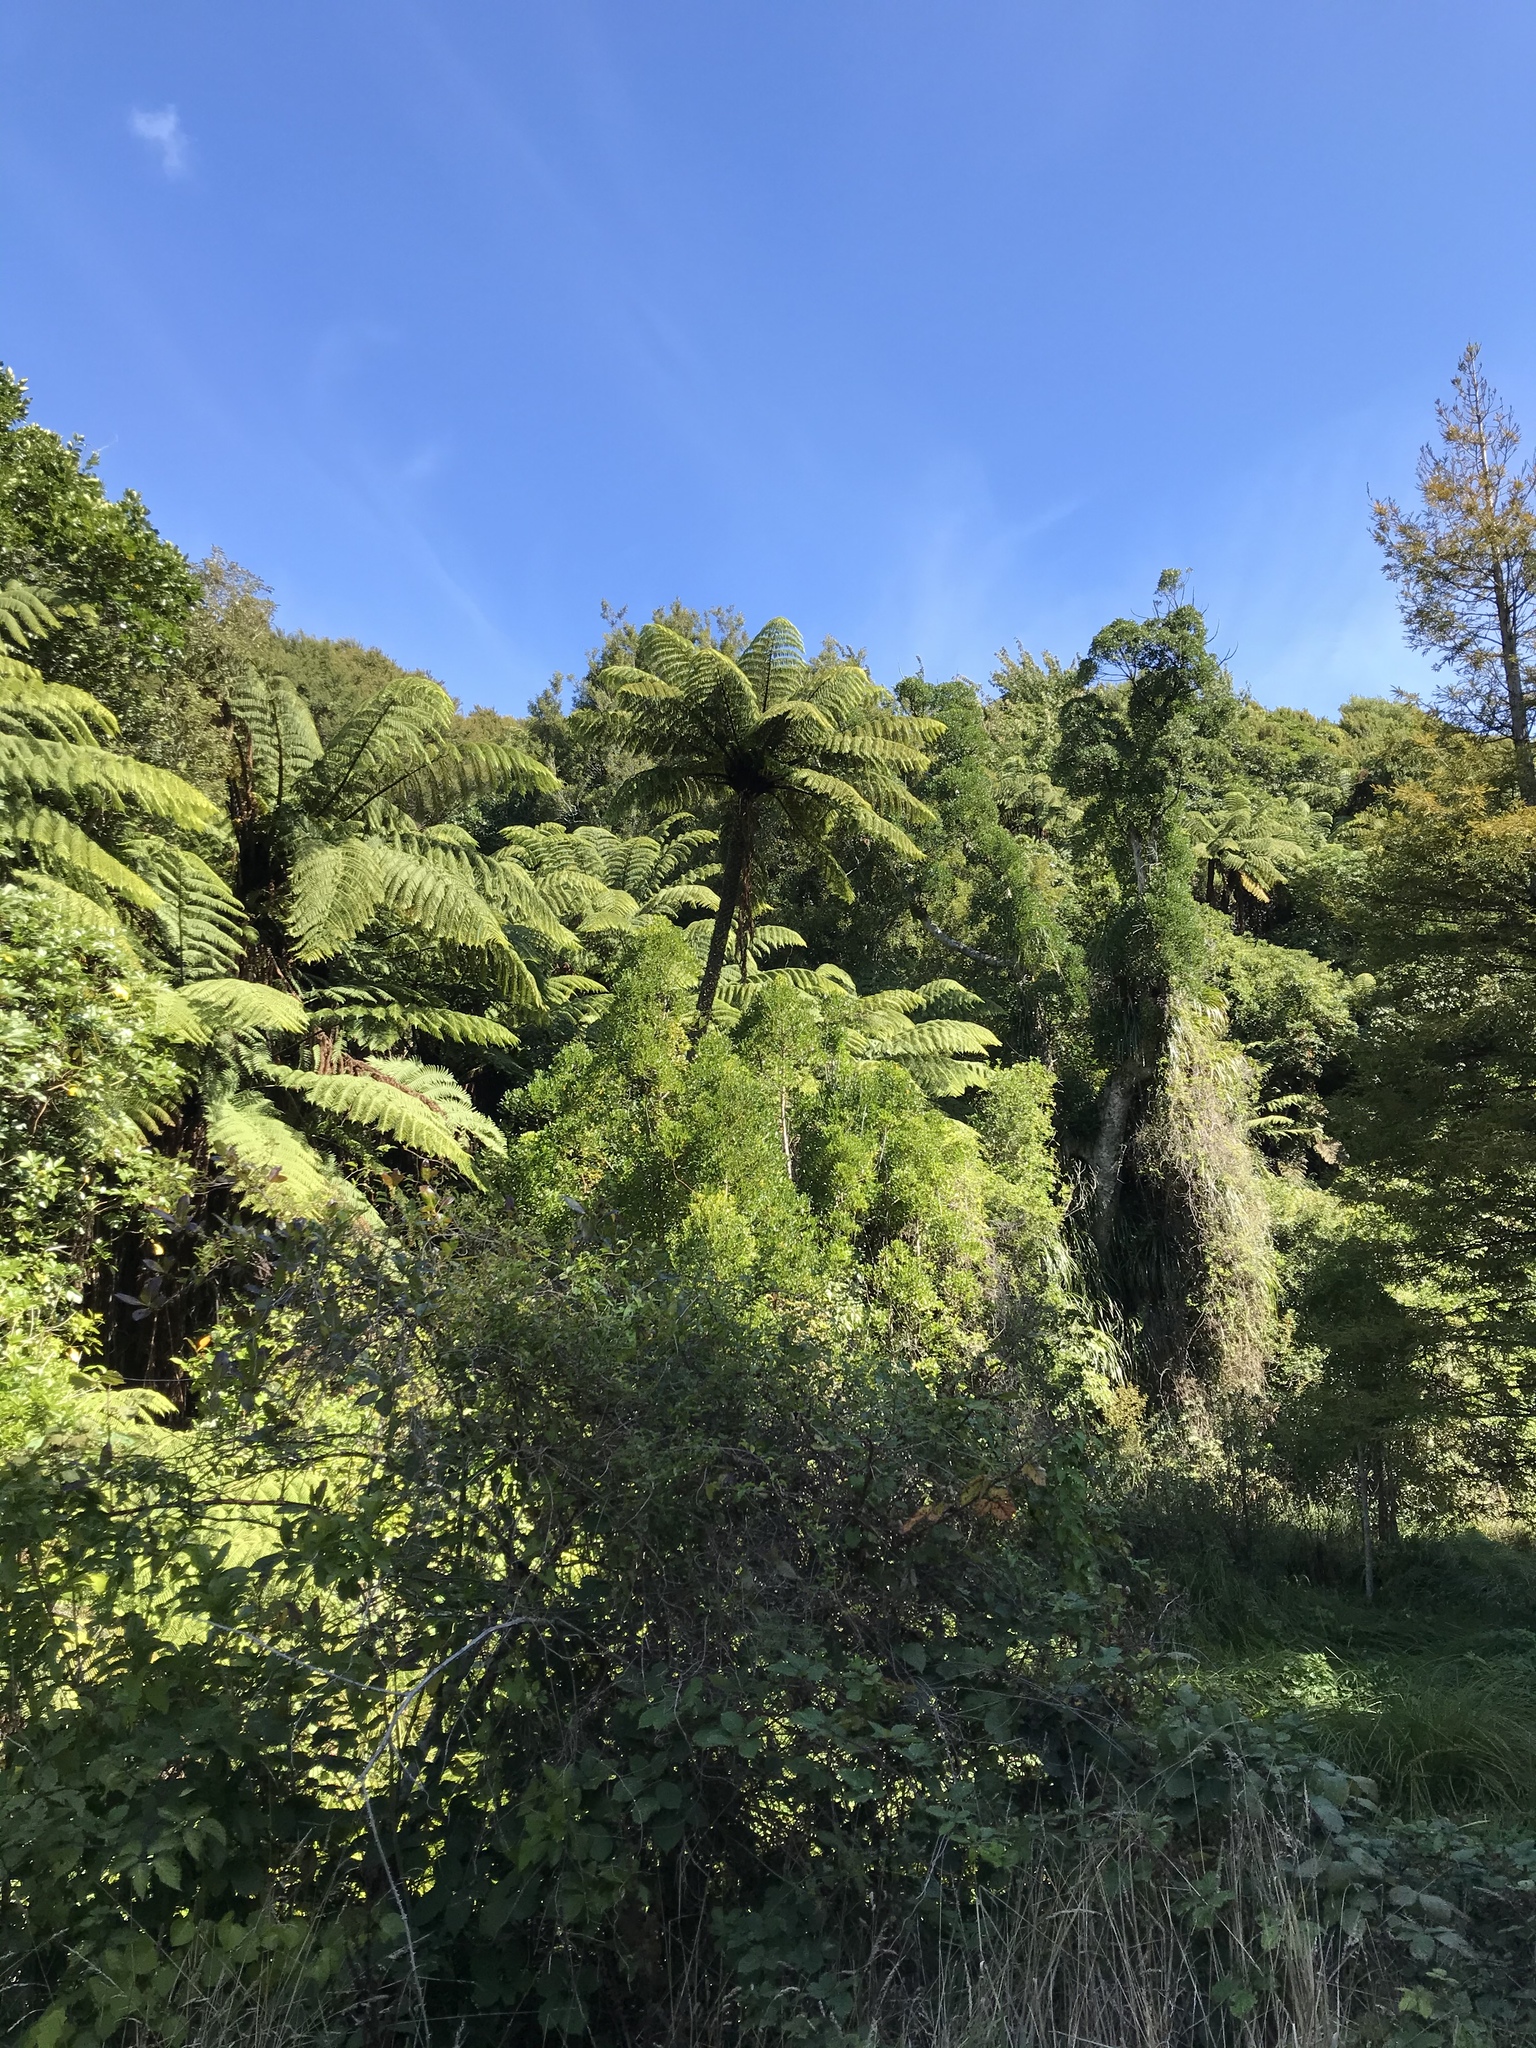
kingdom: Plantae
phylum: Tracheophyta
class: Polypodiopsida
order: Cyatheales
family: Cyatheaceae
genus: Sphaeropteris
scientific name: Sphaeropteris medullaris
